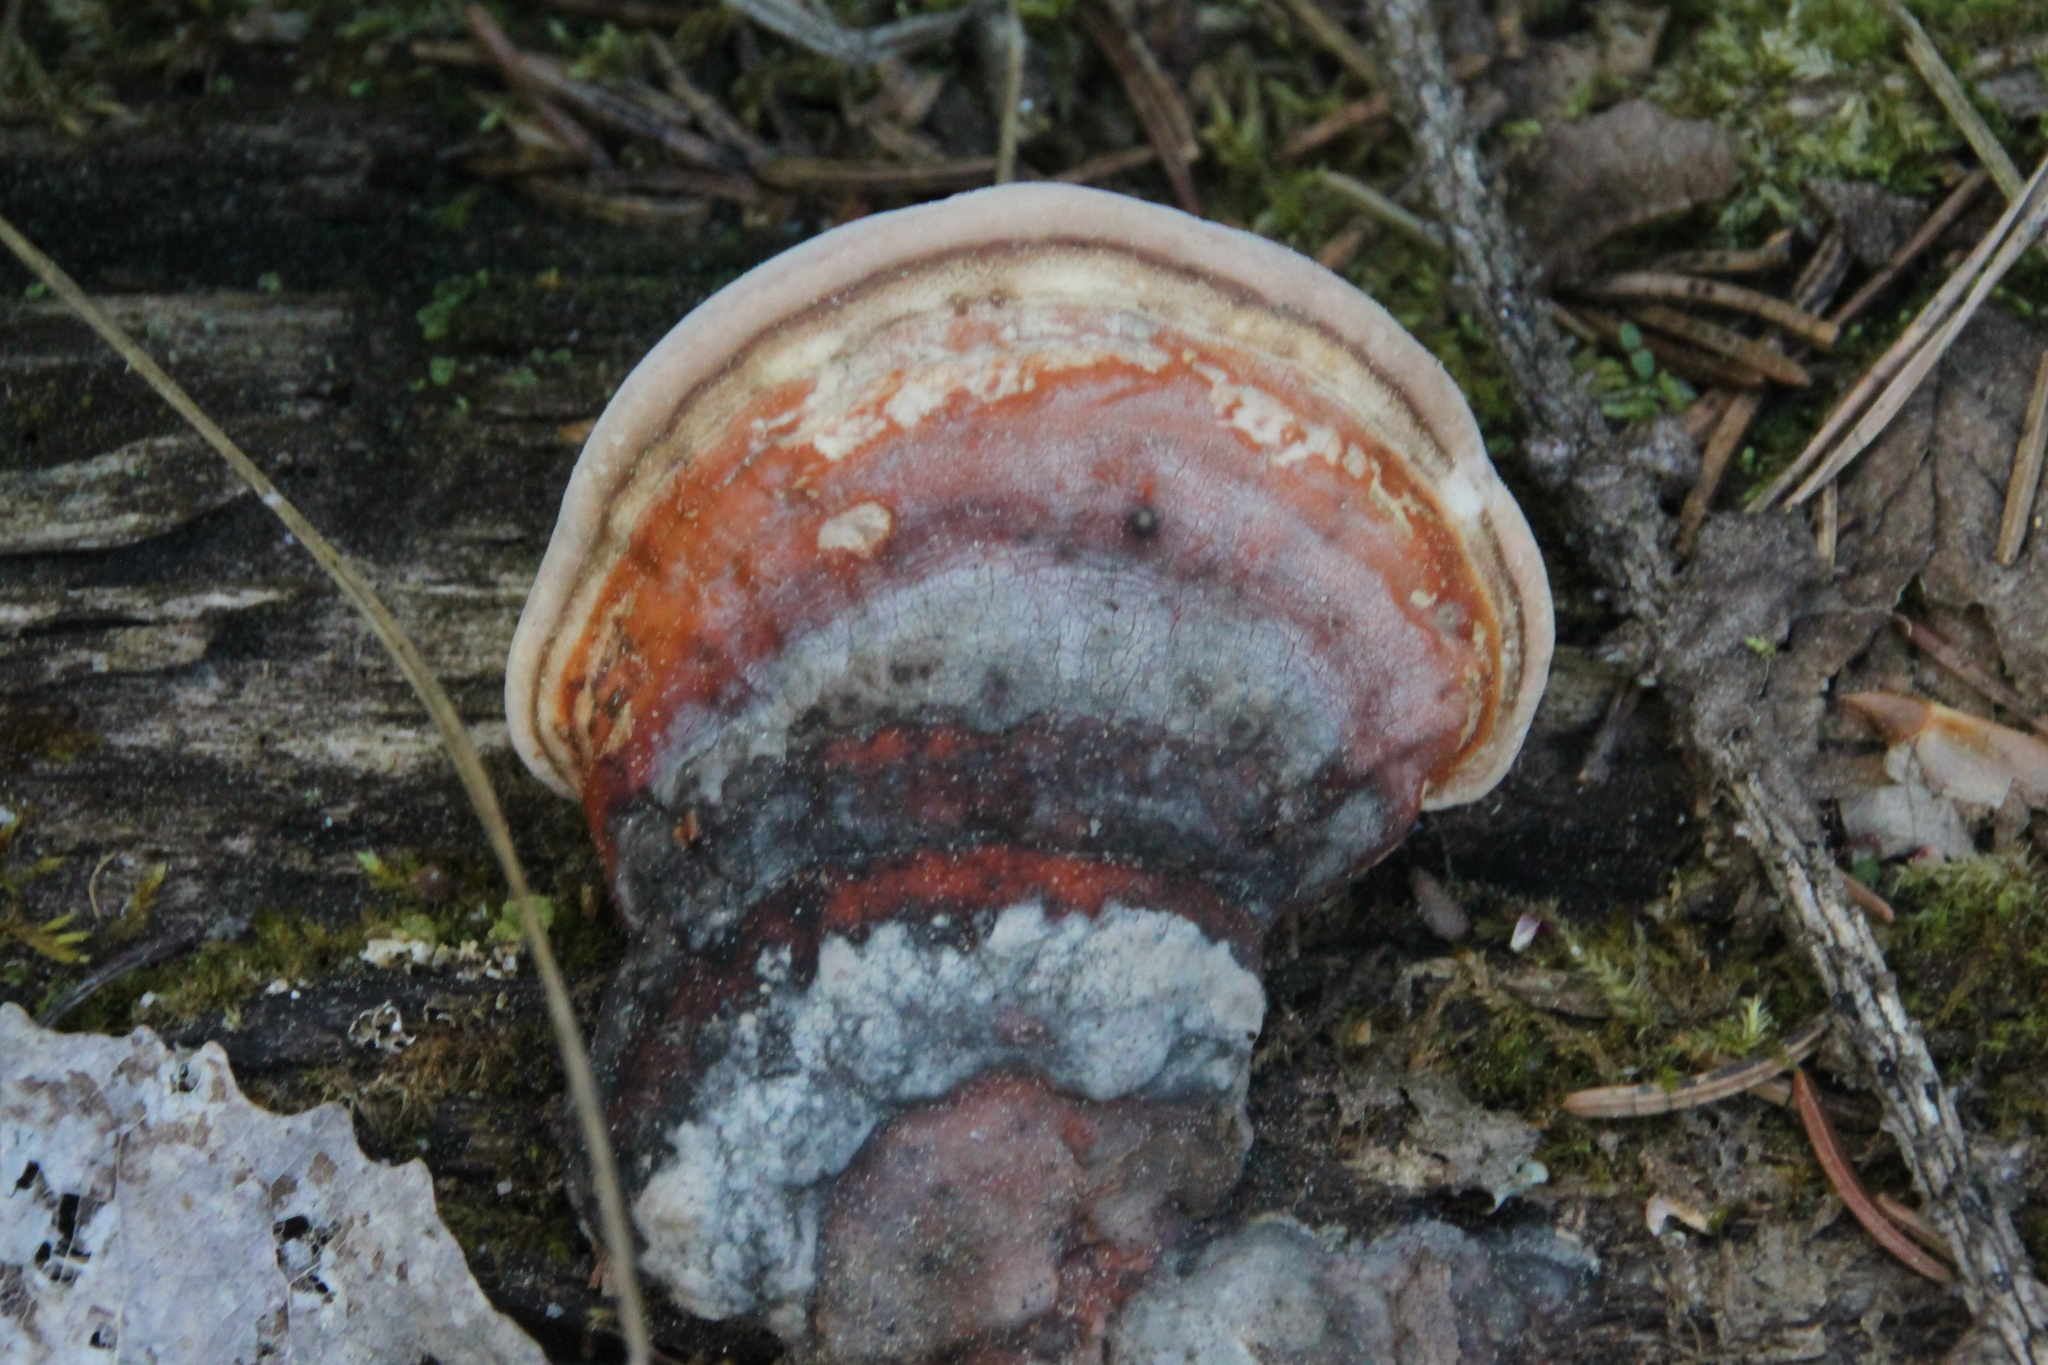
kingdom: Fungi
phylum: Basidiomycota
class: Agaricomycetes
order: Polyporales
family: Fomitopsidaceae
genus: Fomitopsis
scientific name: Fomitopsis pinicola
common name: Red-belted bracket
